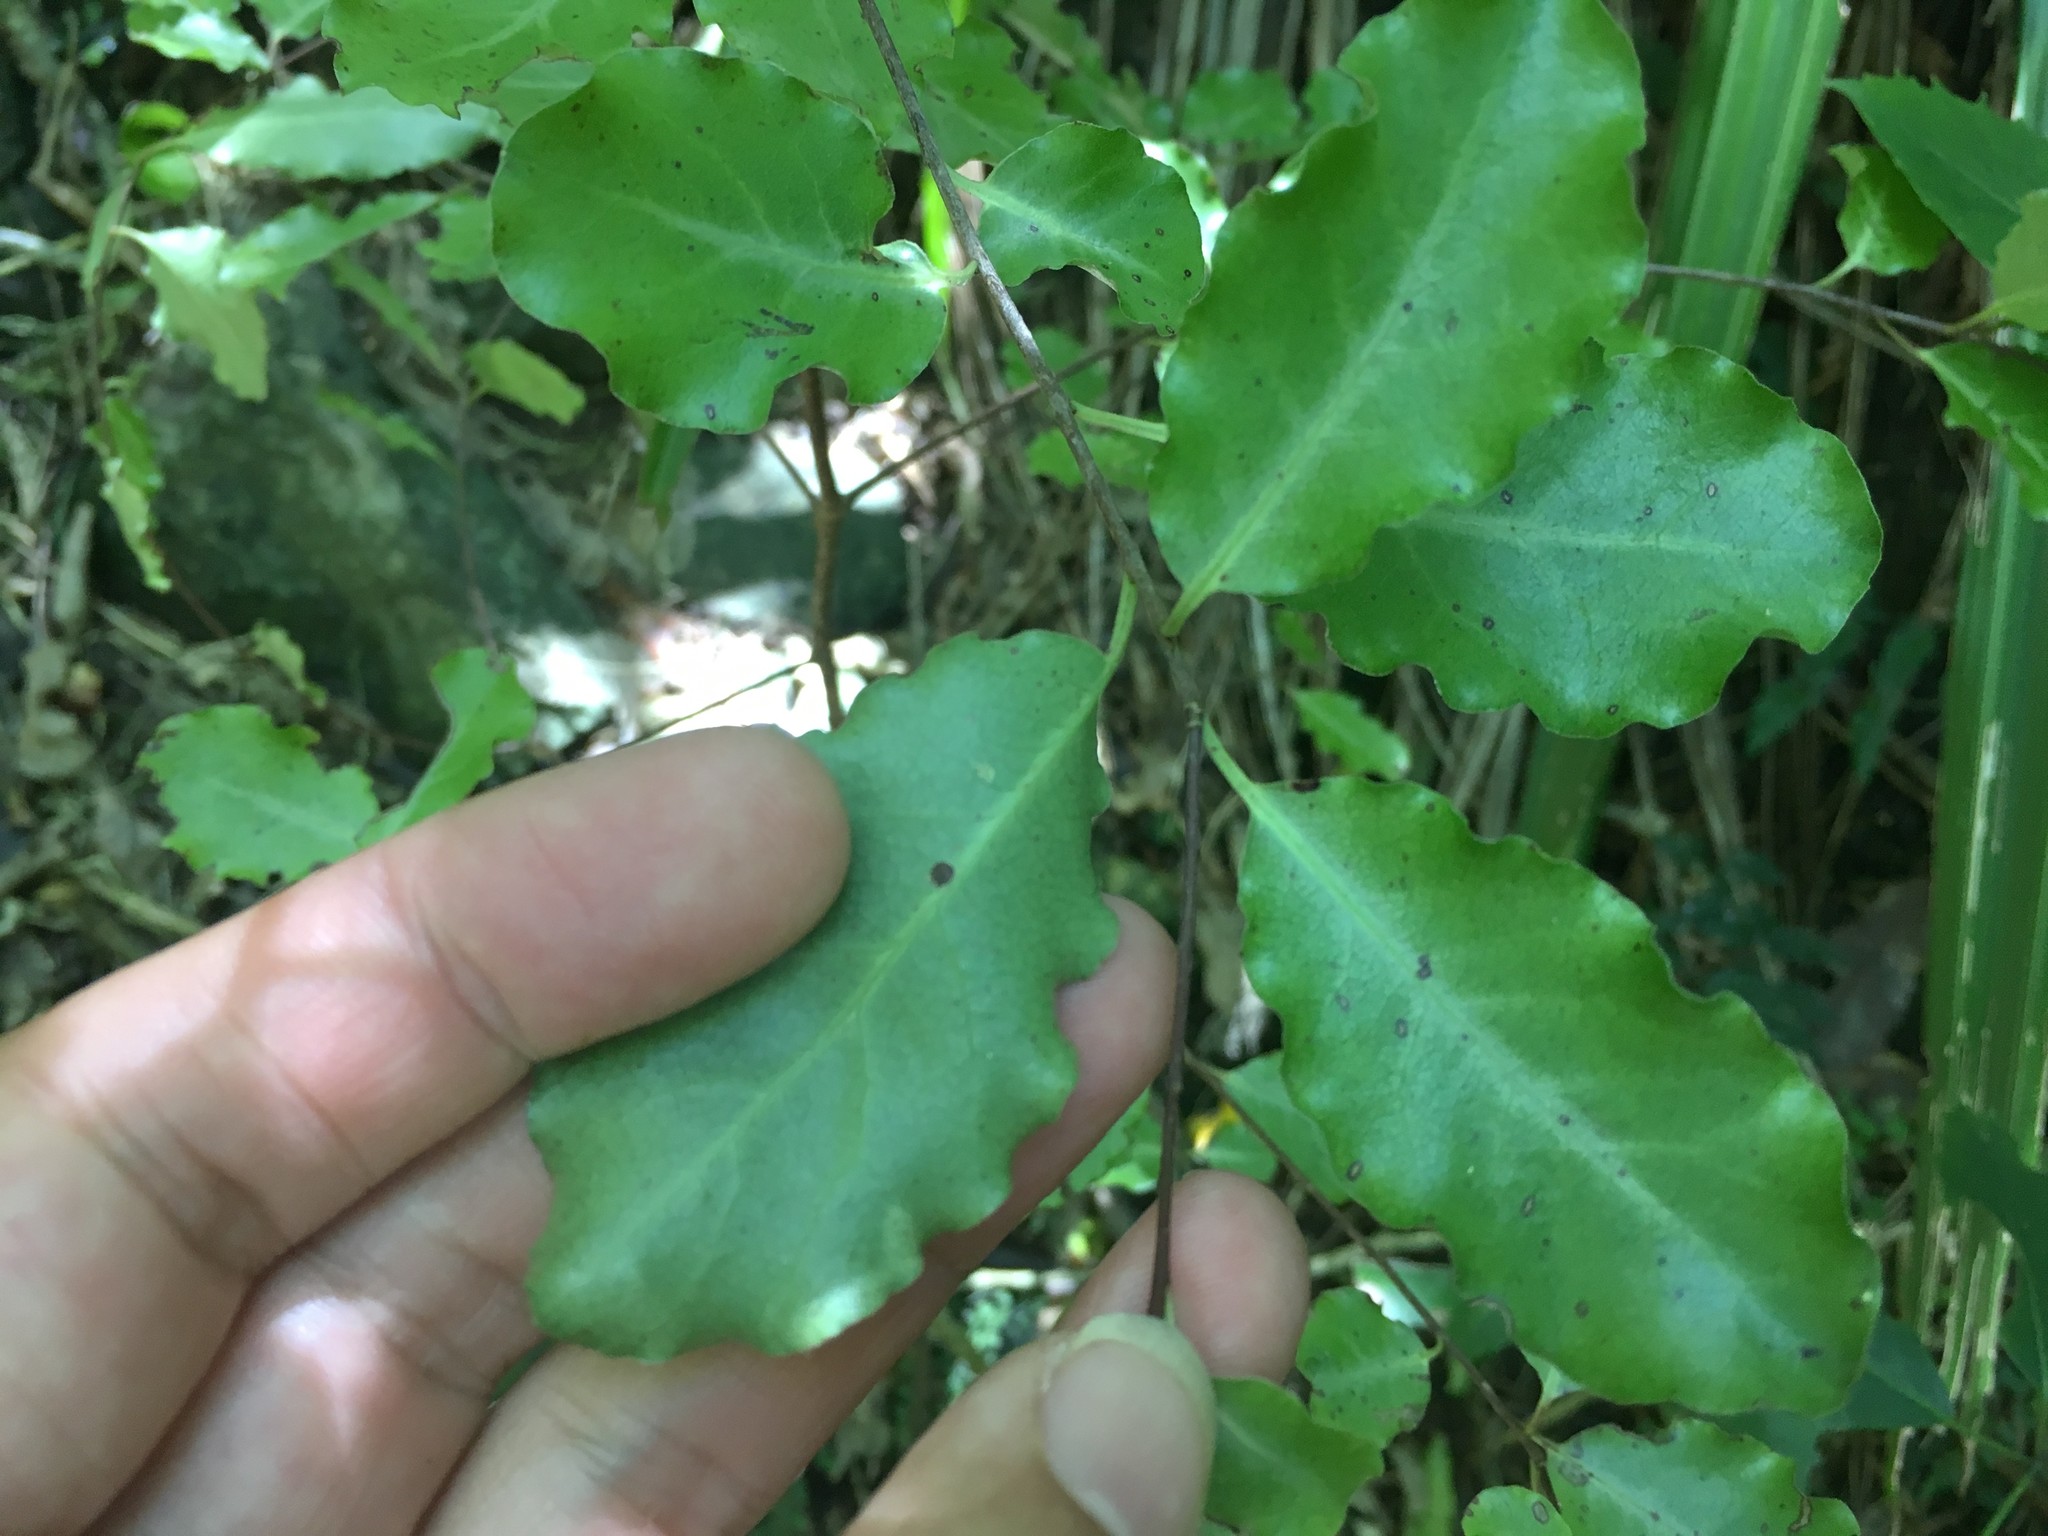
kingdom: Plantae
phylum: Tracheophyta
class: Magnoliopsida
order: Apiales
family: Pittosporaceae
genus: Pittosporum
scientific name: Pittosporum tenuifolium
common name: Kohuhu
